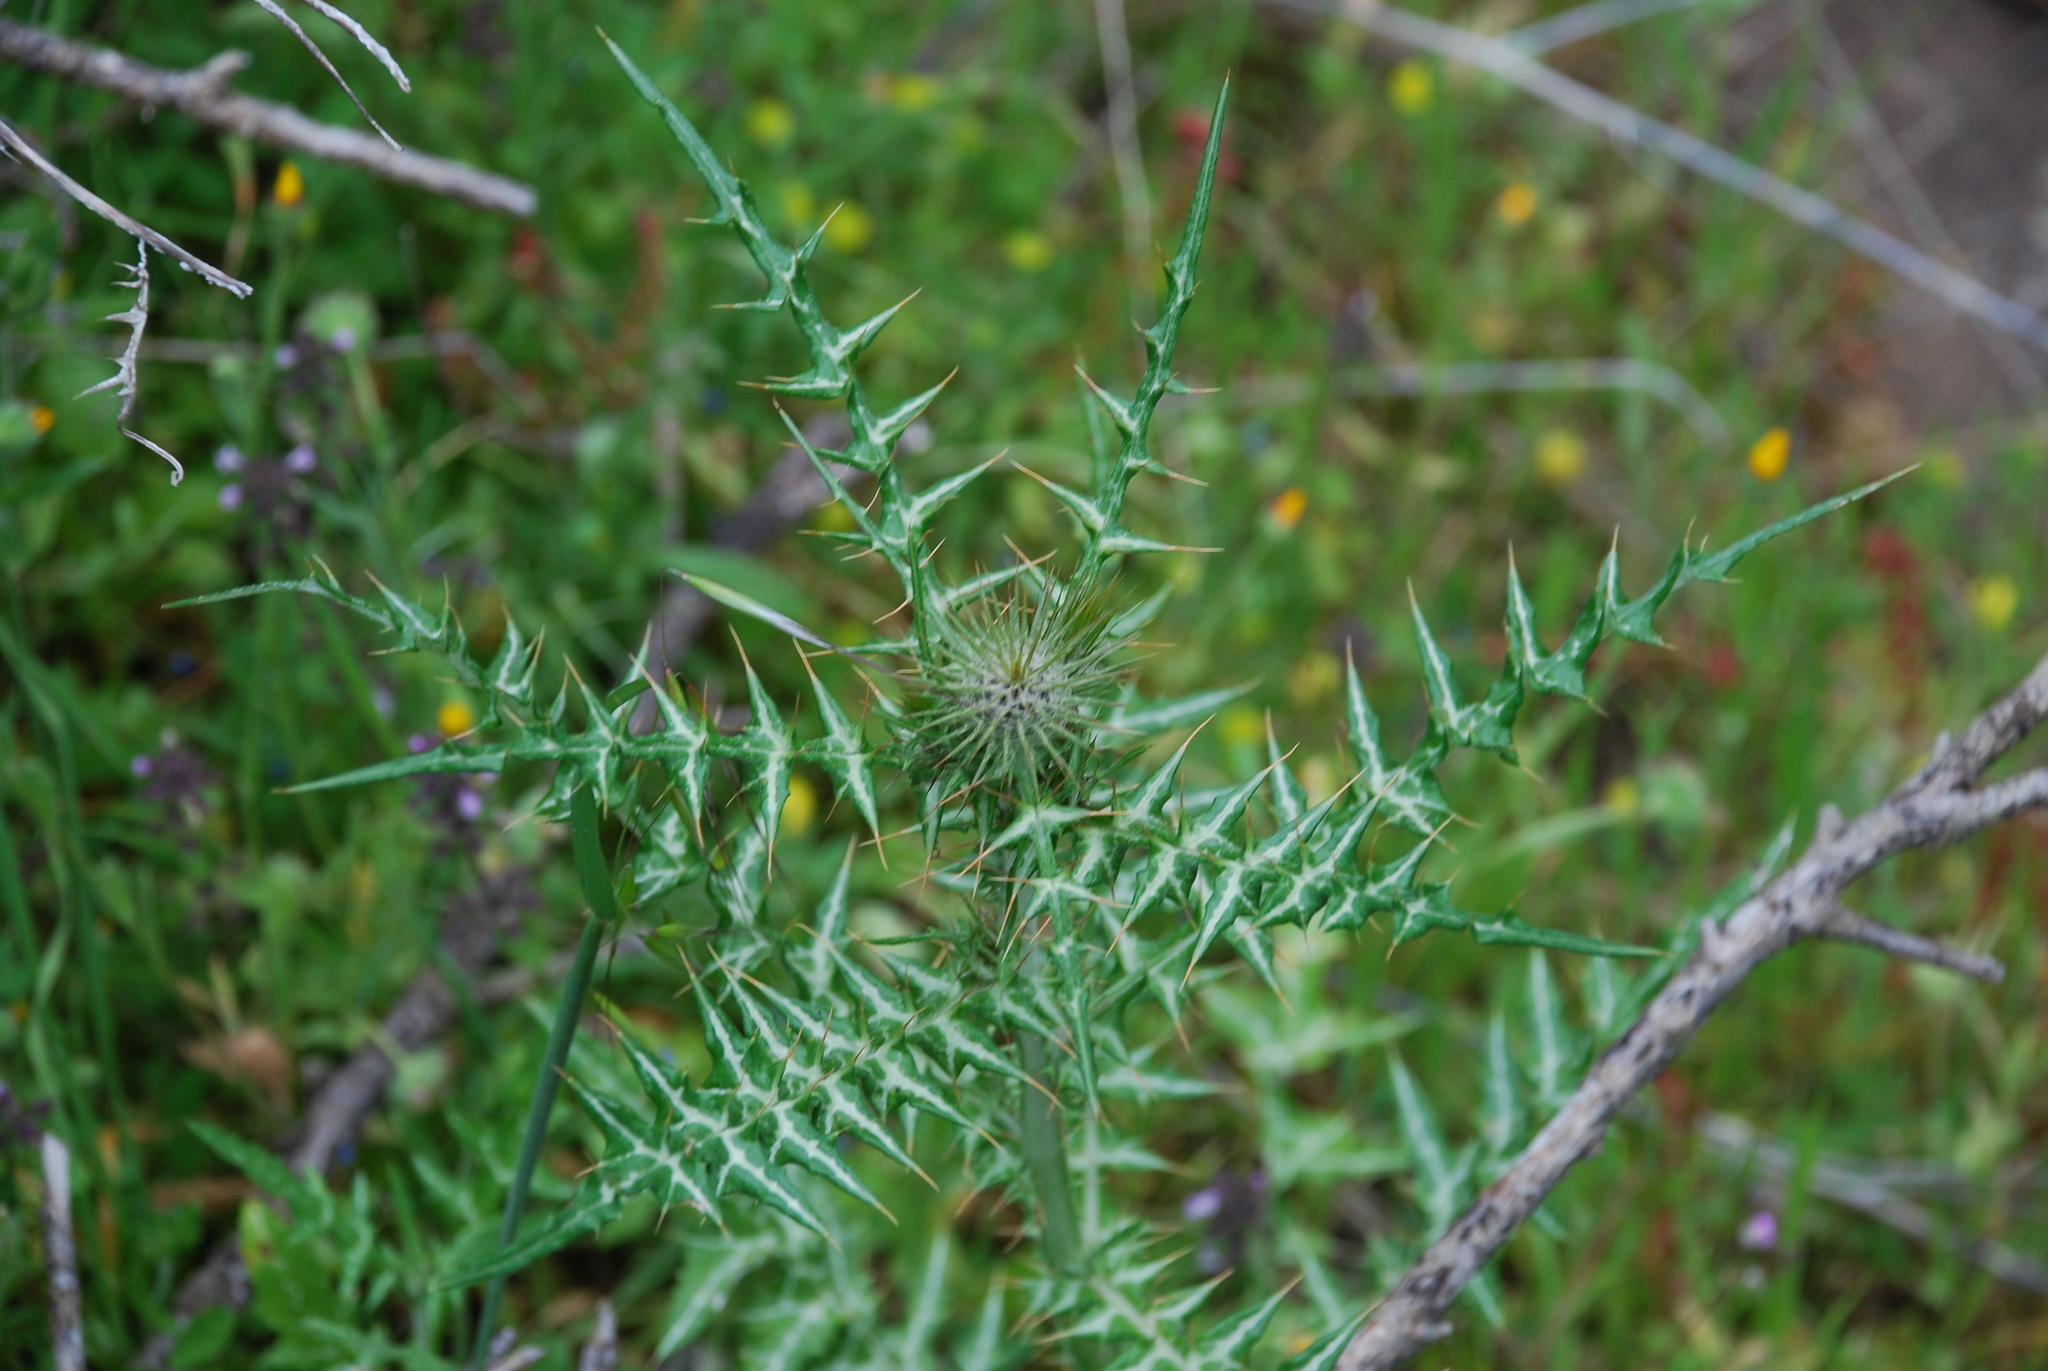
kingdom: Plantae
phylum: Tracheophyta
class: Magnoliopsida
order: Asterales
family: Asteraceae
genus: Galactites
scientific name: Galactites tomentosa
